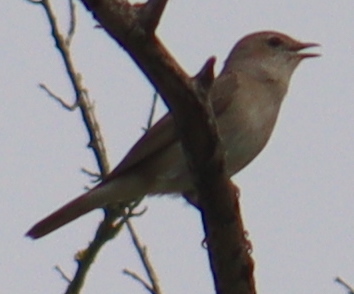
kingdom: Animalia
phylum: Chordata
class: Aves
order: Passeriformes
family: Muscicapidae
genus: Luscinia
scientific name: Luscinia megarhynchos
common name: Common nightingale
